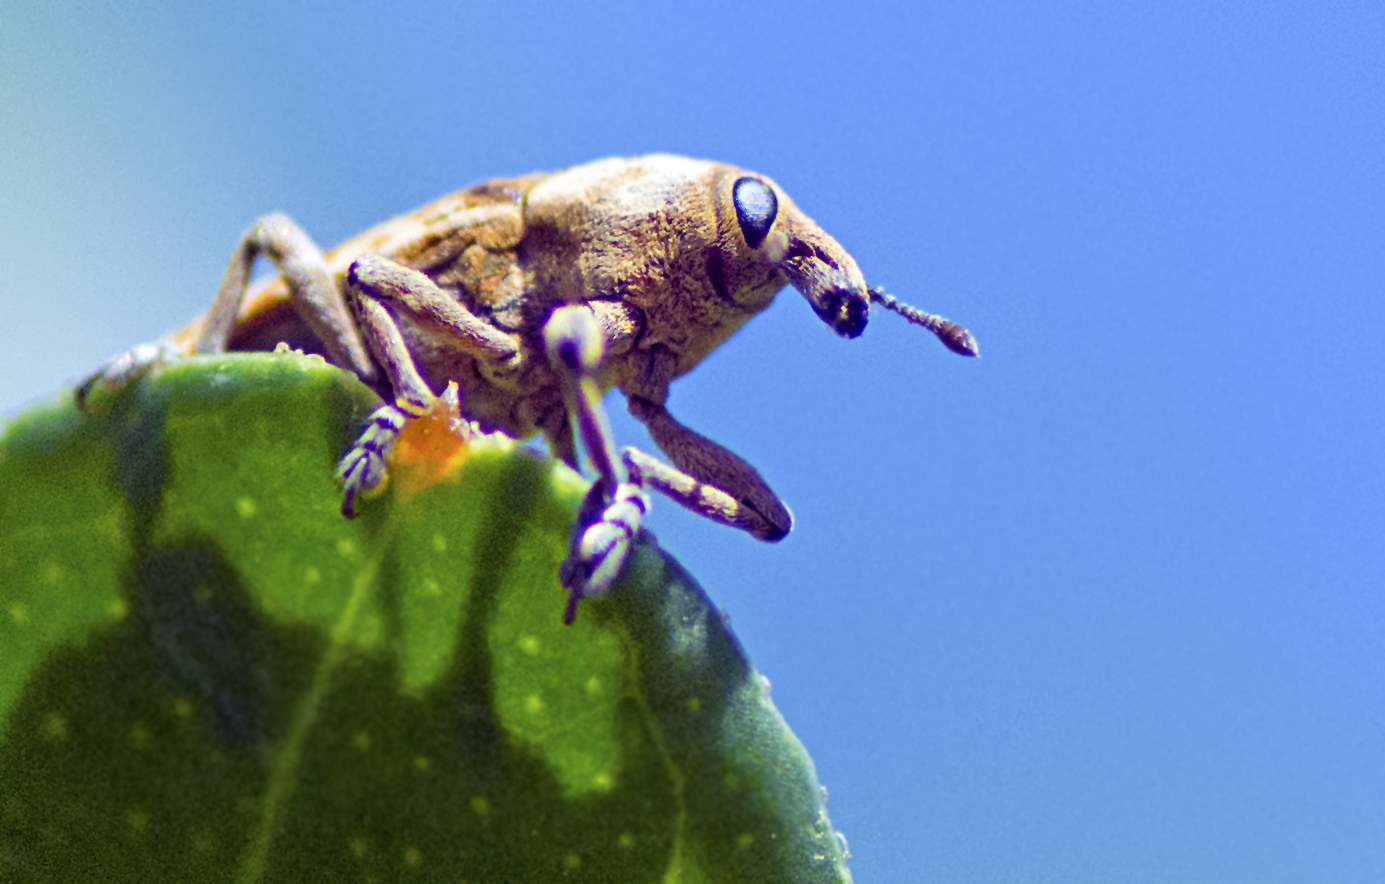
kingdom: Animalia
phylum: Arthropoda
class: Insecta
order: Coleoptera
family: Curculionidae
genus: Hypolixus
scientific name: Hypolixus
